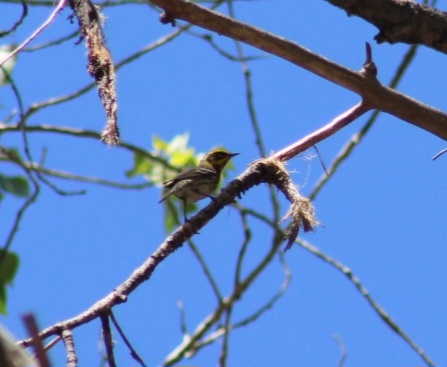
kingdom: Animalia
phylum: Chordata
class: Aves
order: Passeriformes
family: Parulidae
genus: Setophaga
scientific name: Setophaga townsendi
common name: Townsend's warbler
